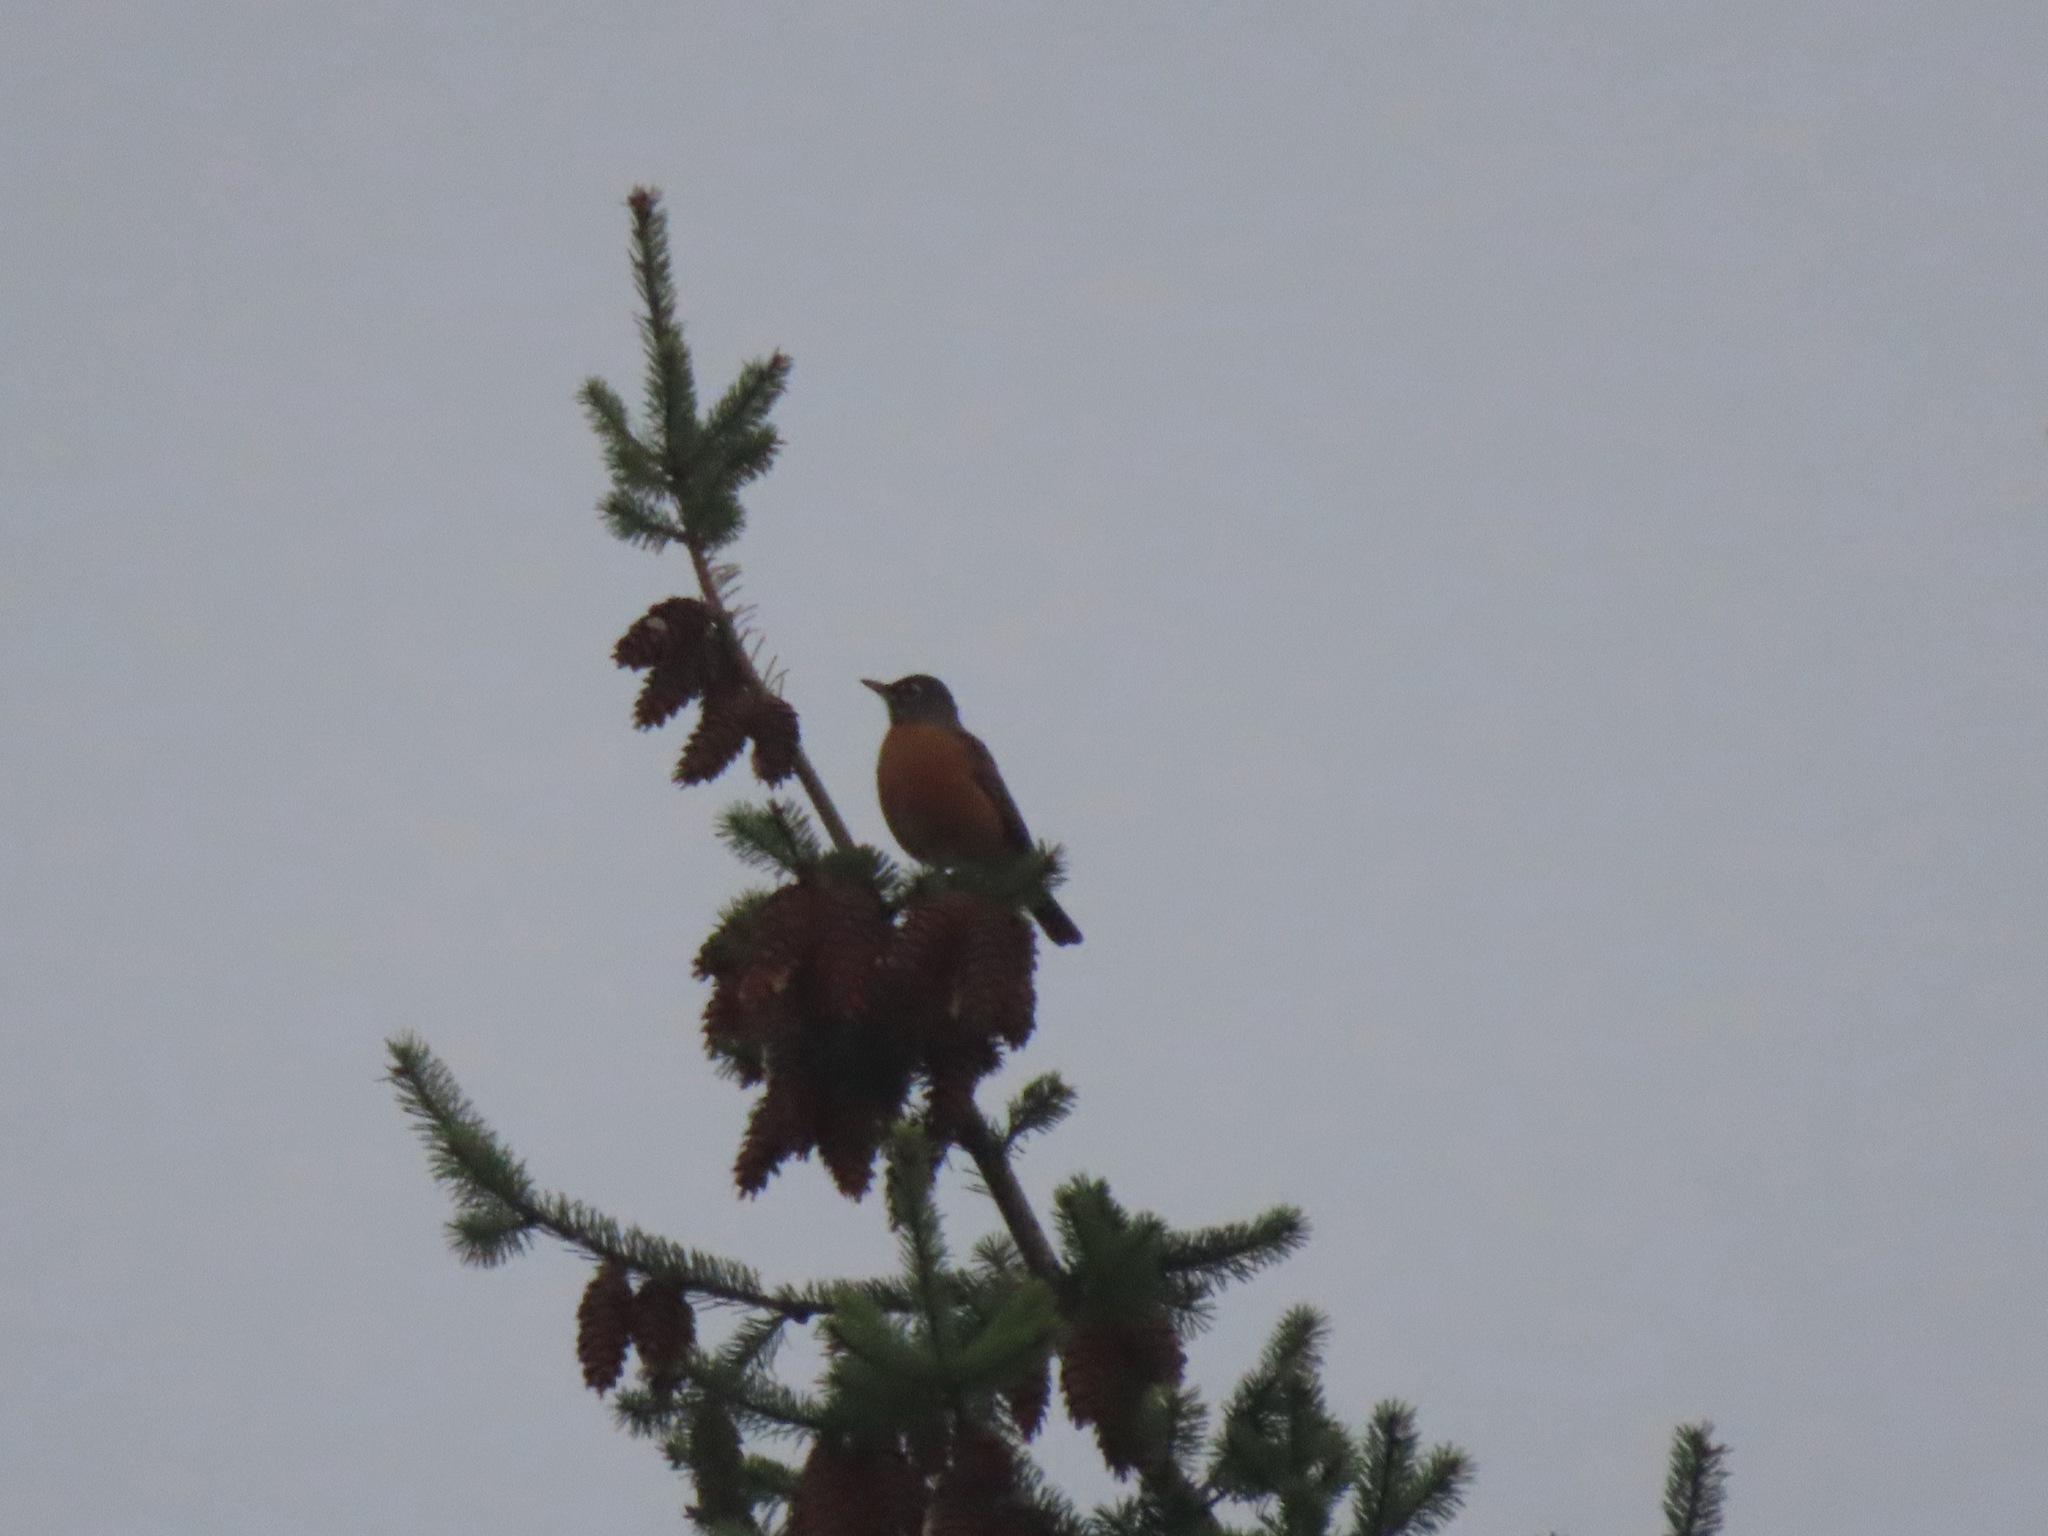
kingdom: Animalia
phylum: Chordata
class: Aves
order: Passeriformes
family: Turdidae
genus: Turdus
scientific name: Turdus migratorius
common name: American robin
